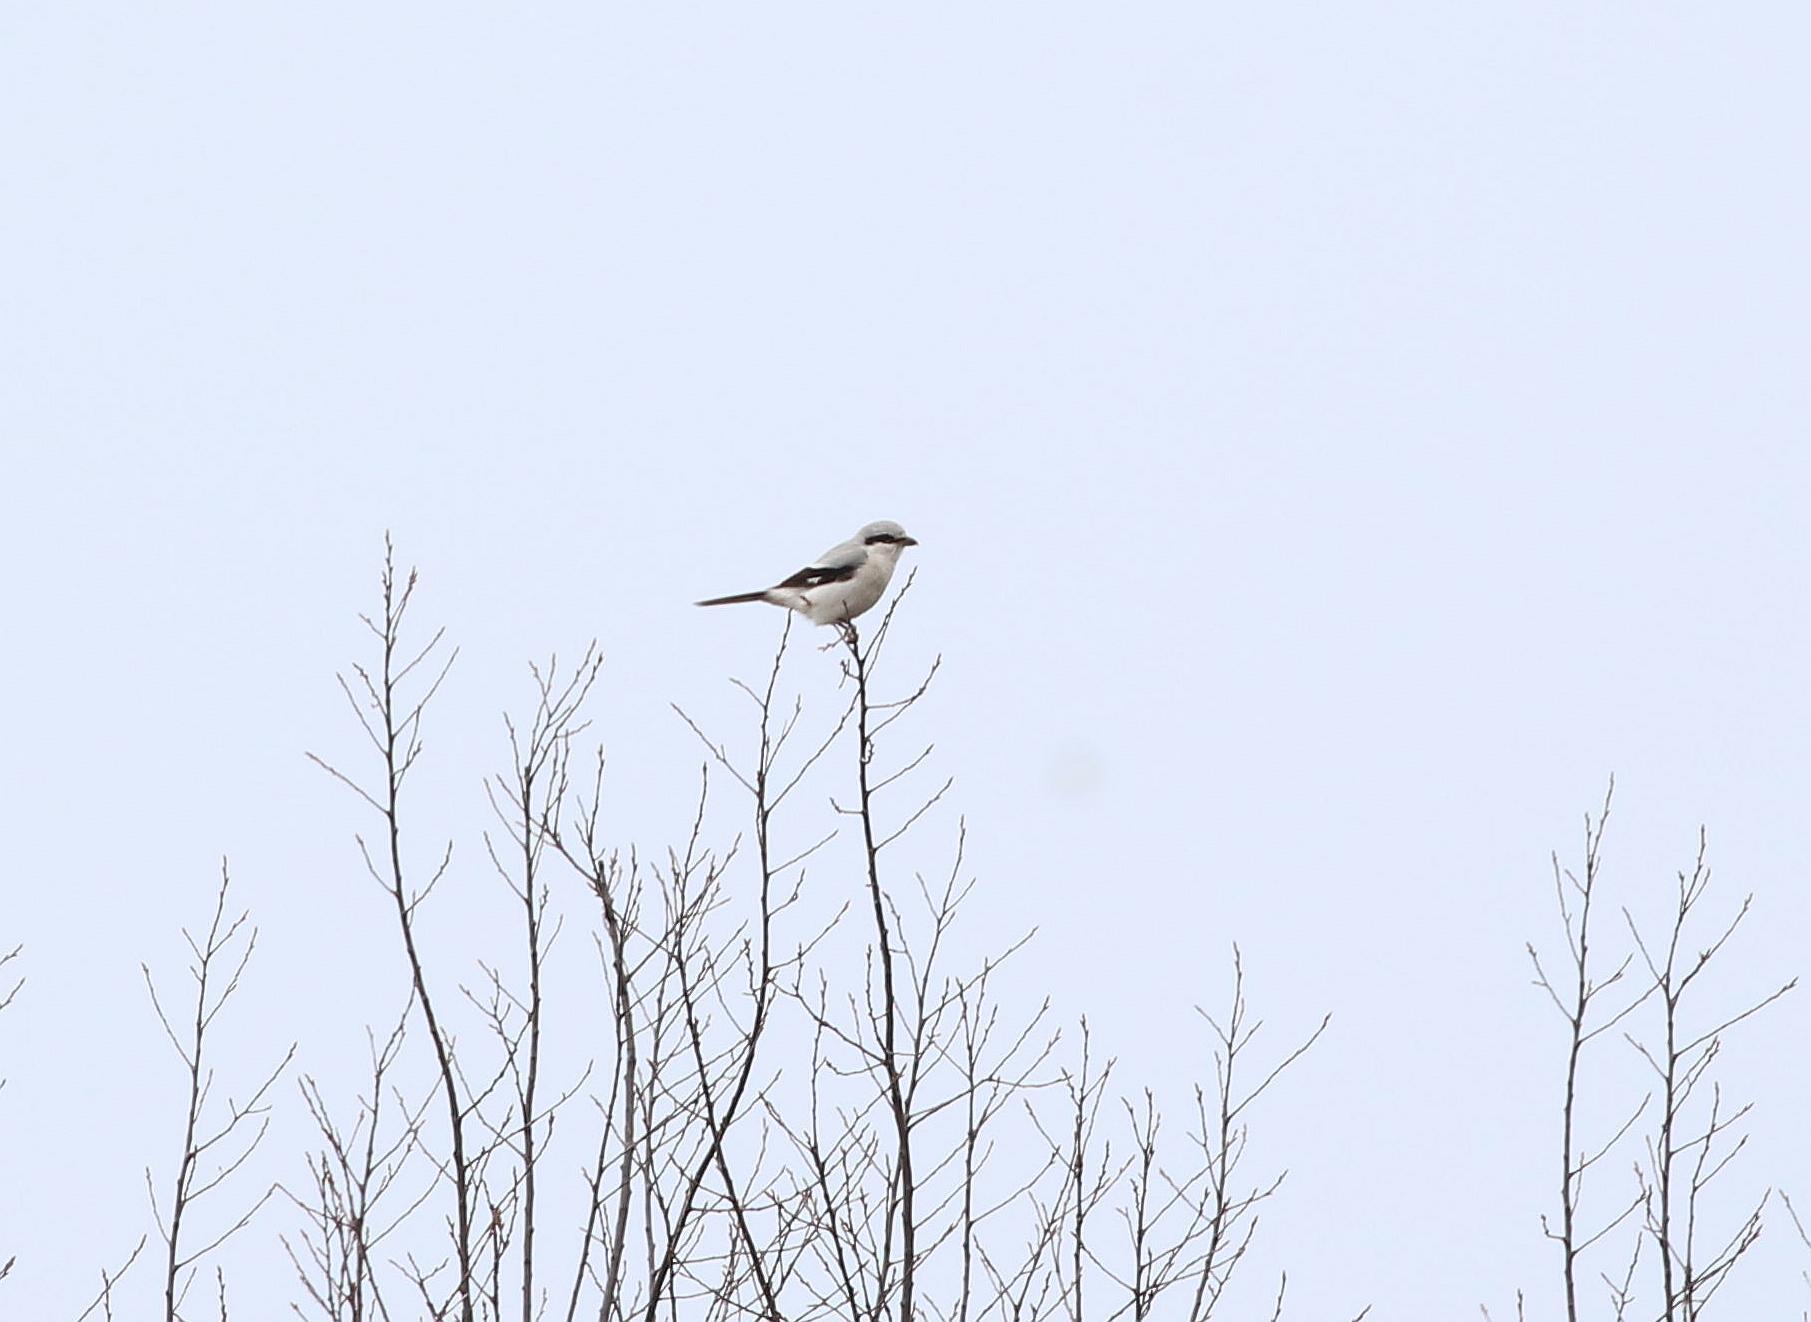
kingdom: Animalia
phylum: Chordata
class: Aves
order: Passeriformes
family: Laniidae
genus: Lanius
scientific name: Lanius borealis
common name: Northern shrike
